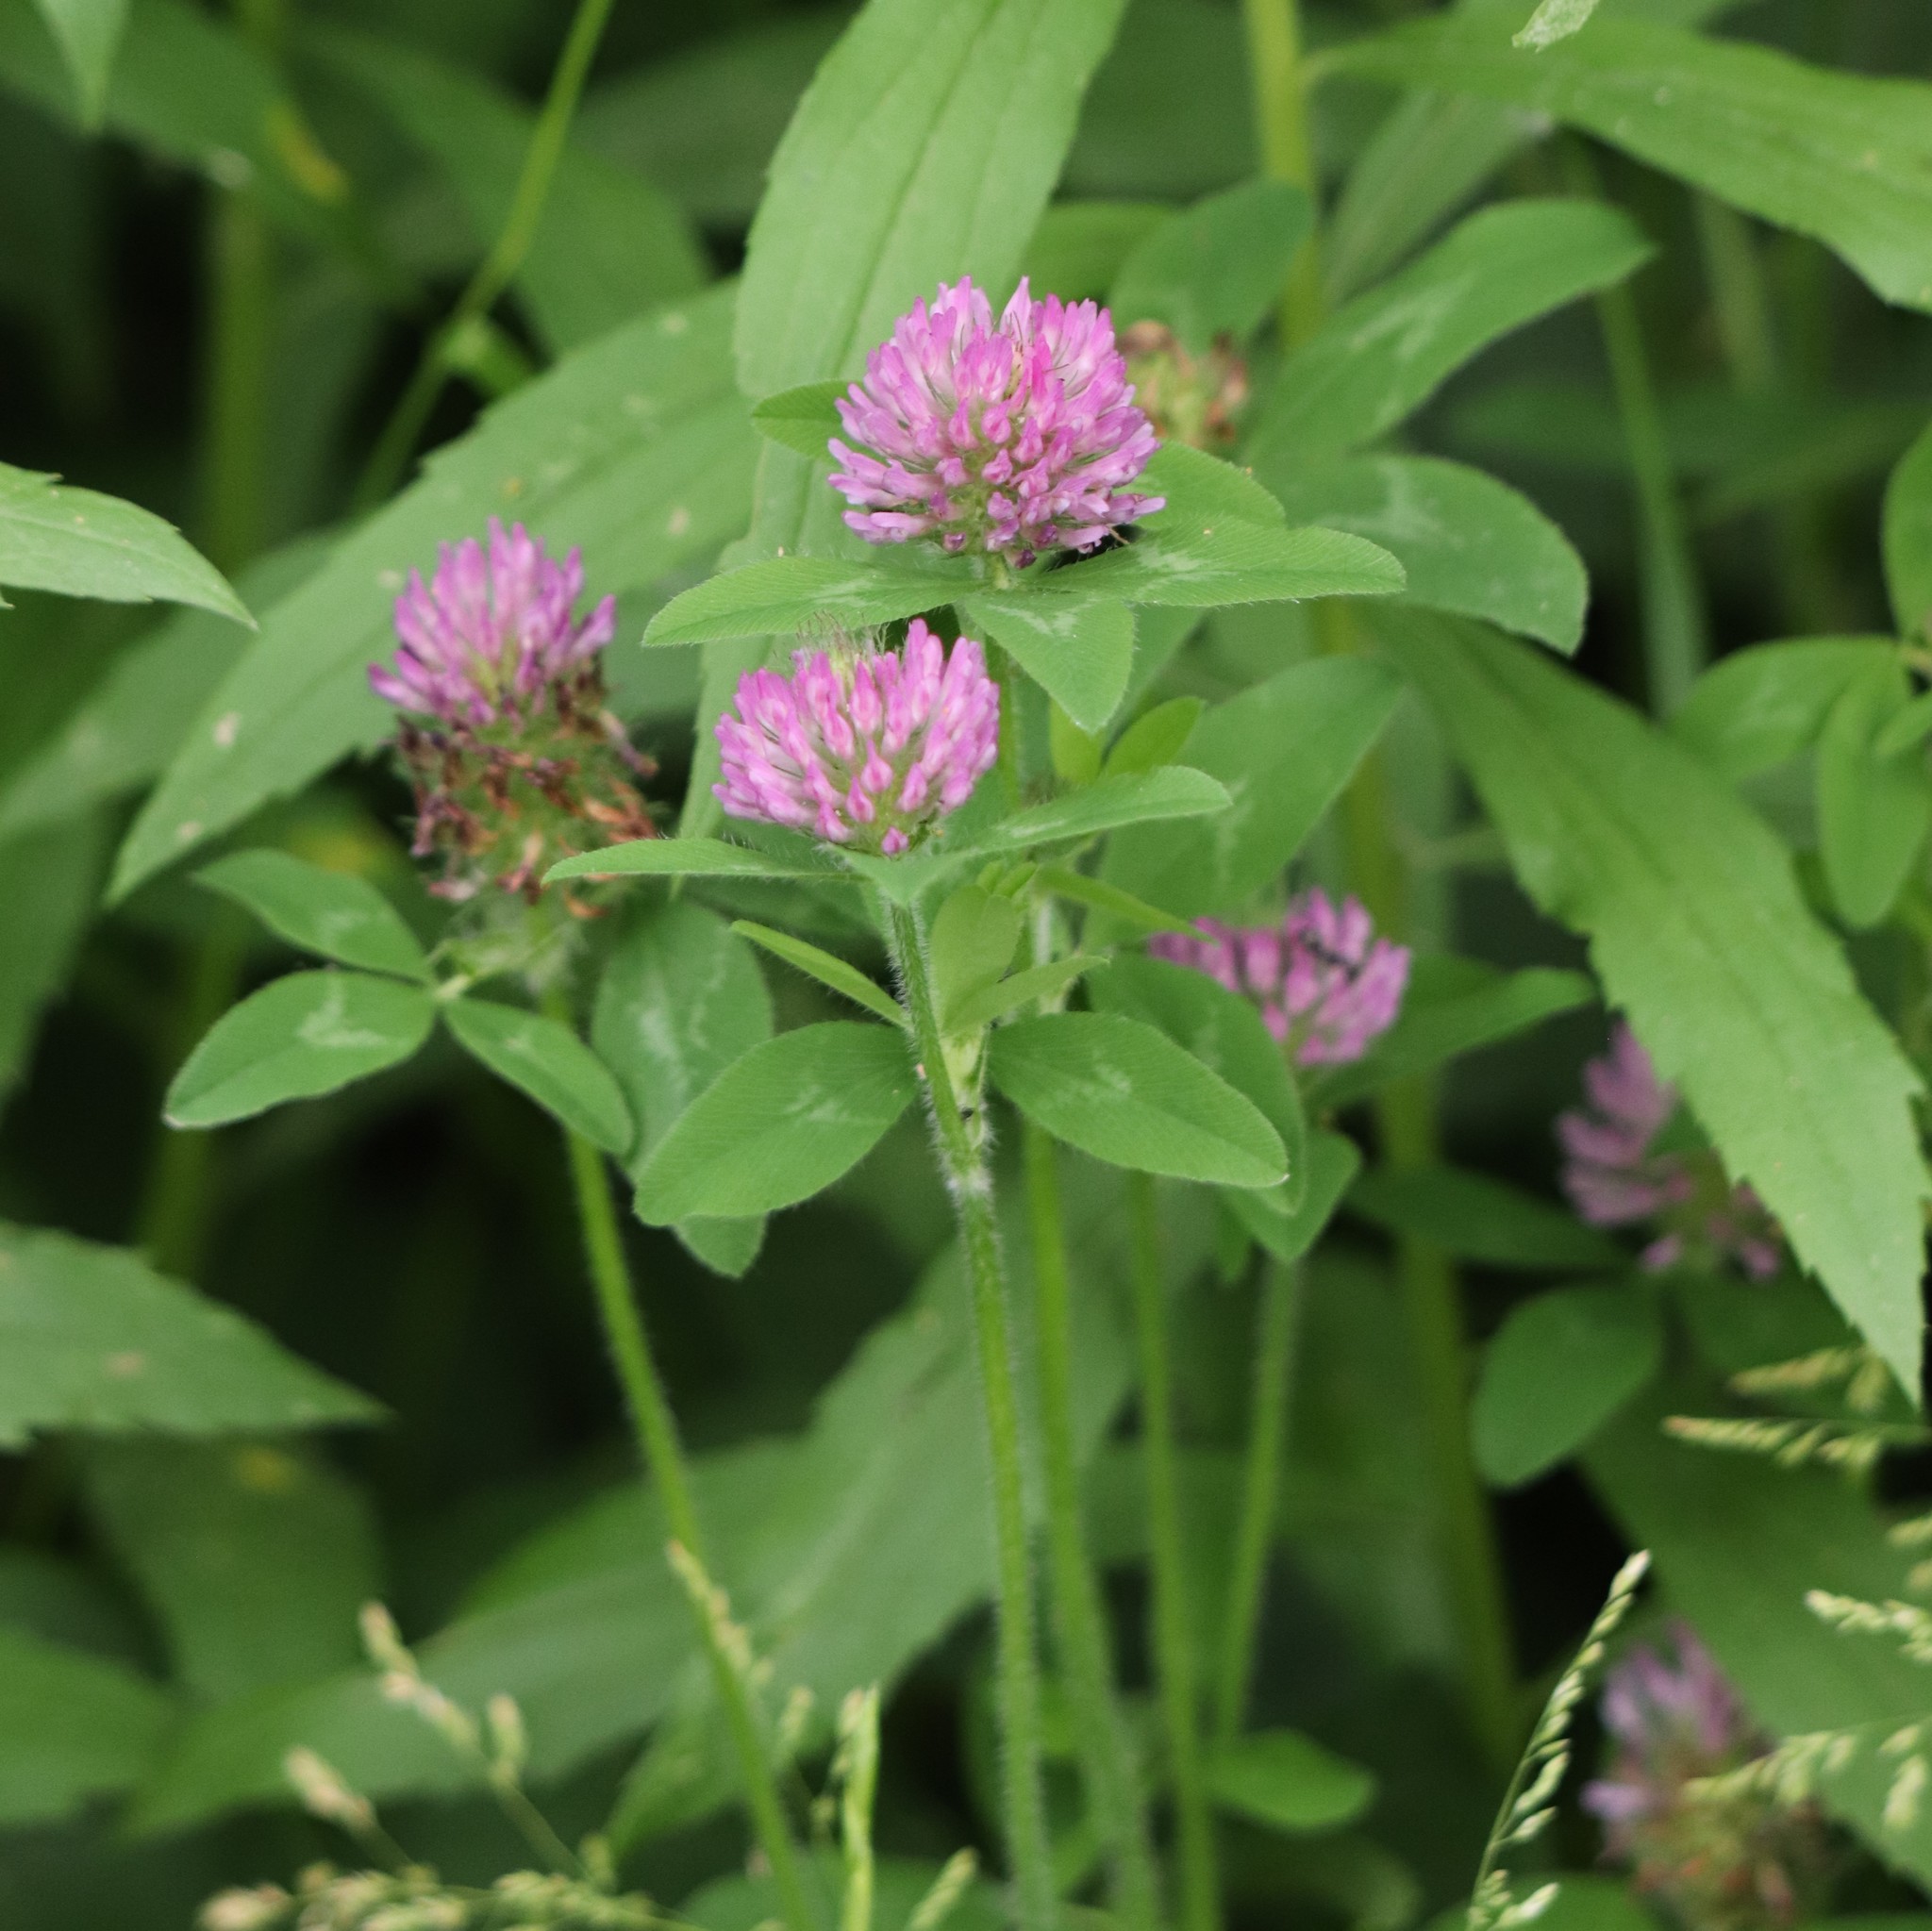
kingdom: Plantae
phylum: Tracheophyta
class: Magnoliopsida
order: Fabales
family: Fabaceae
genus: Trifolium
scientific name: Trifolium pratense
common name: Red clover
